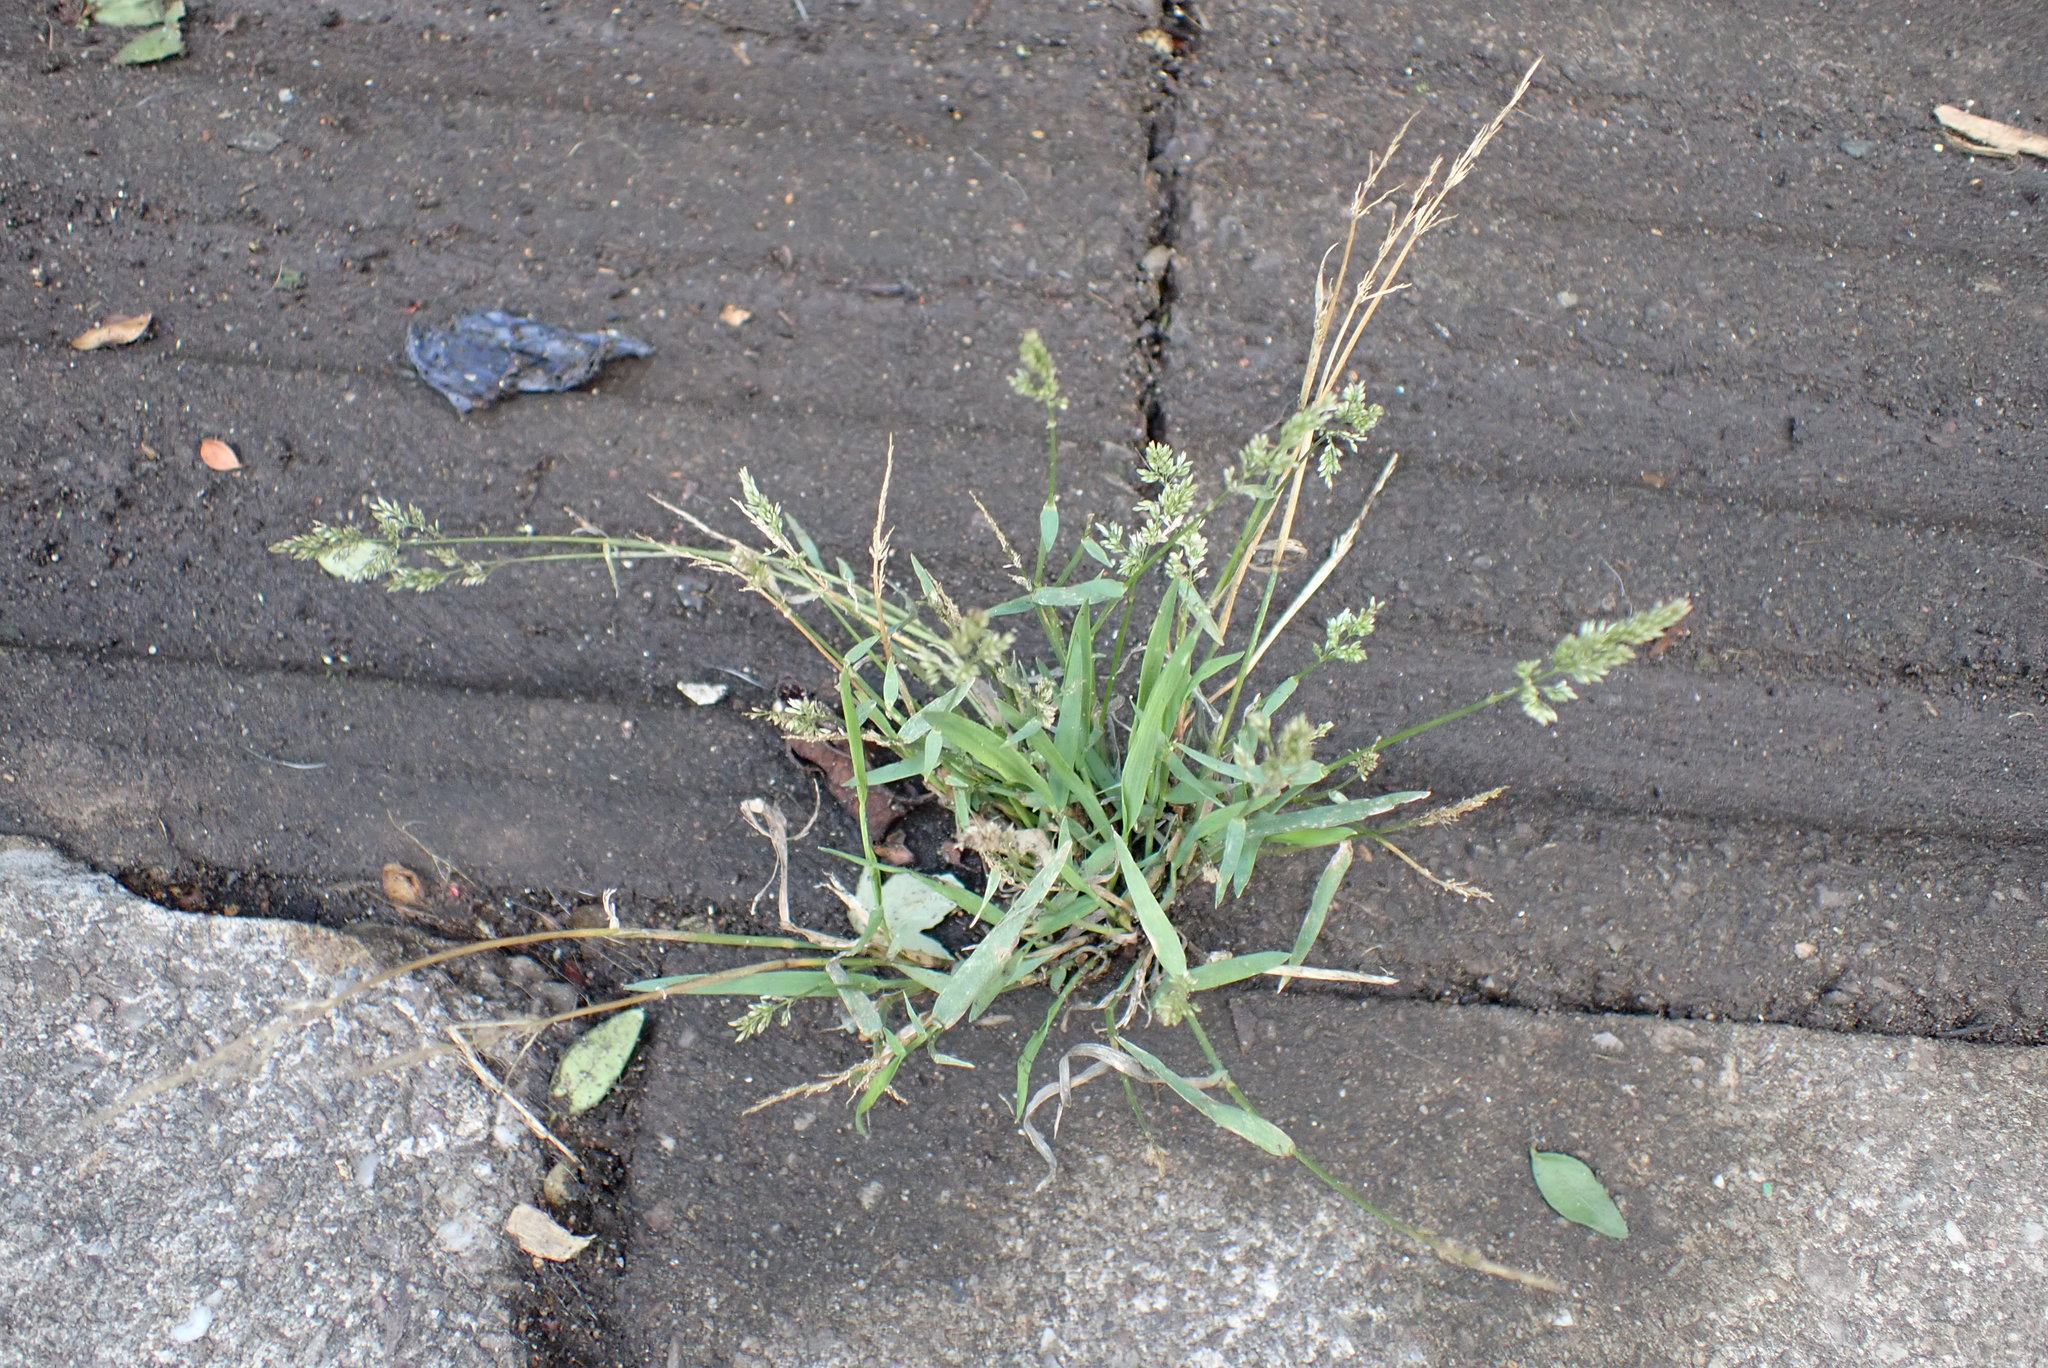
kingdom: Plantae
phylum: Tracheophyta
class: Liliopsida
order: Poales
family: Poaceae
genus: Polypogon
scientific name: Polypogon viridis
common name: Water bent
